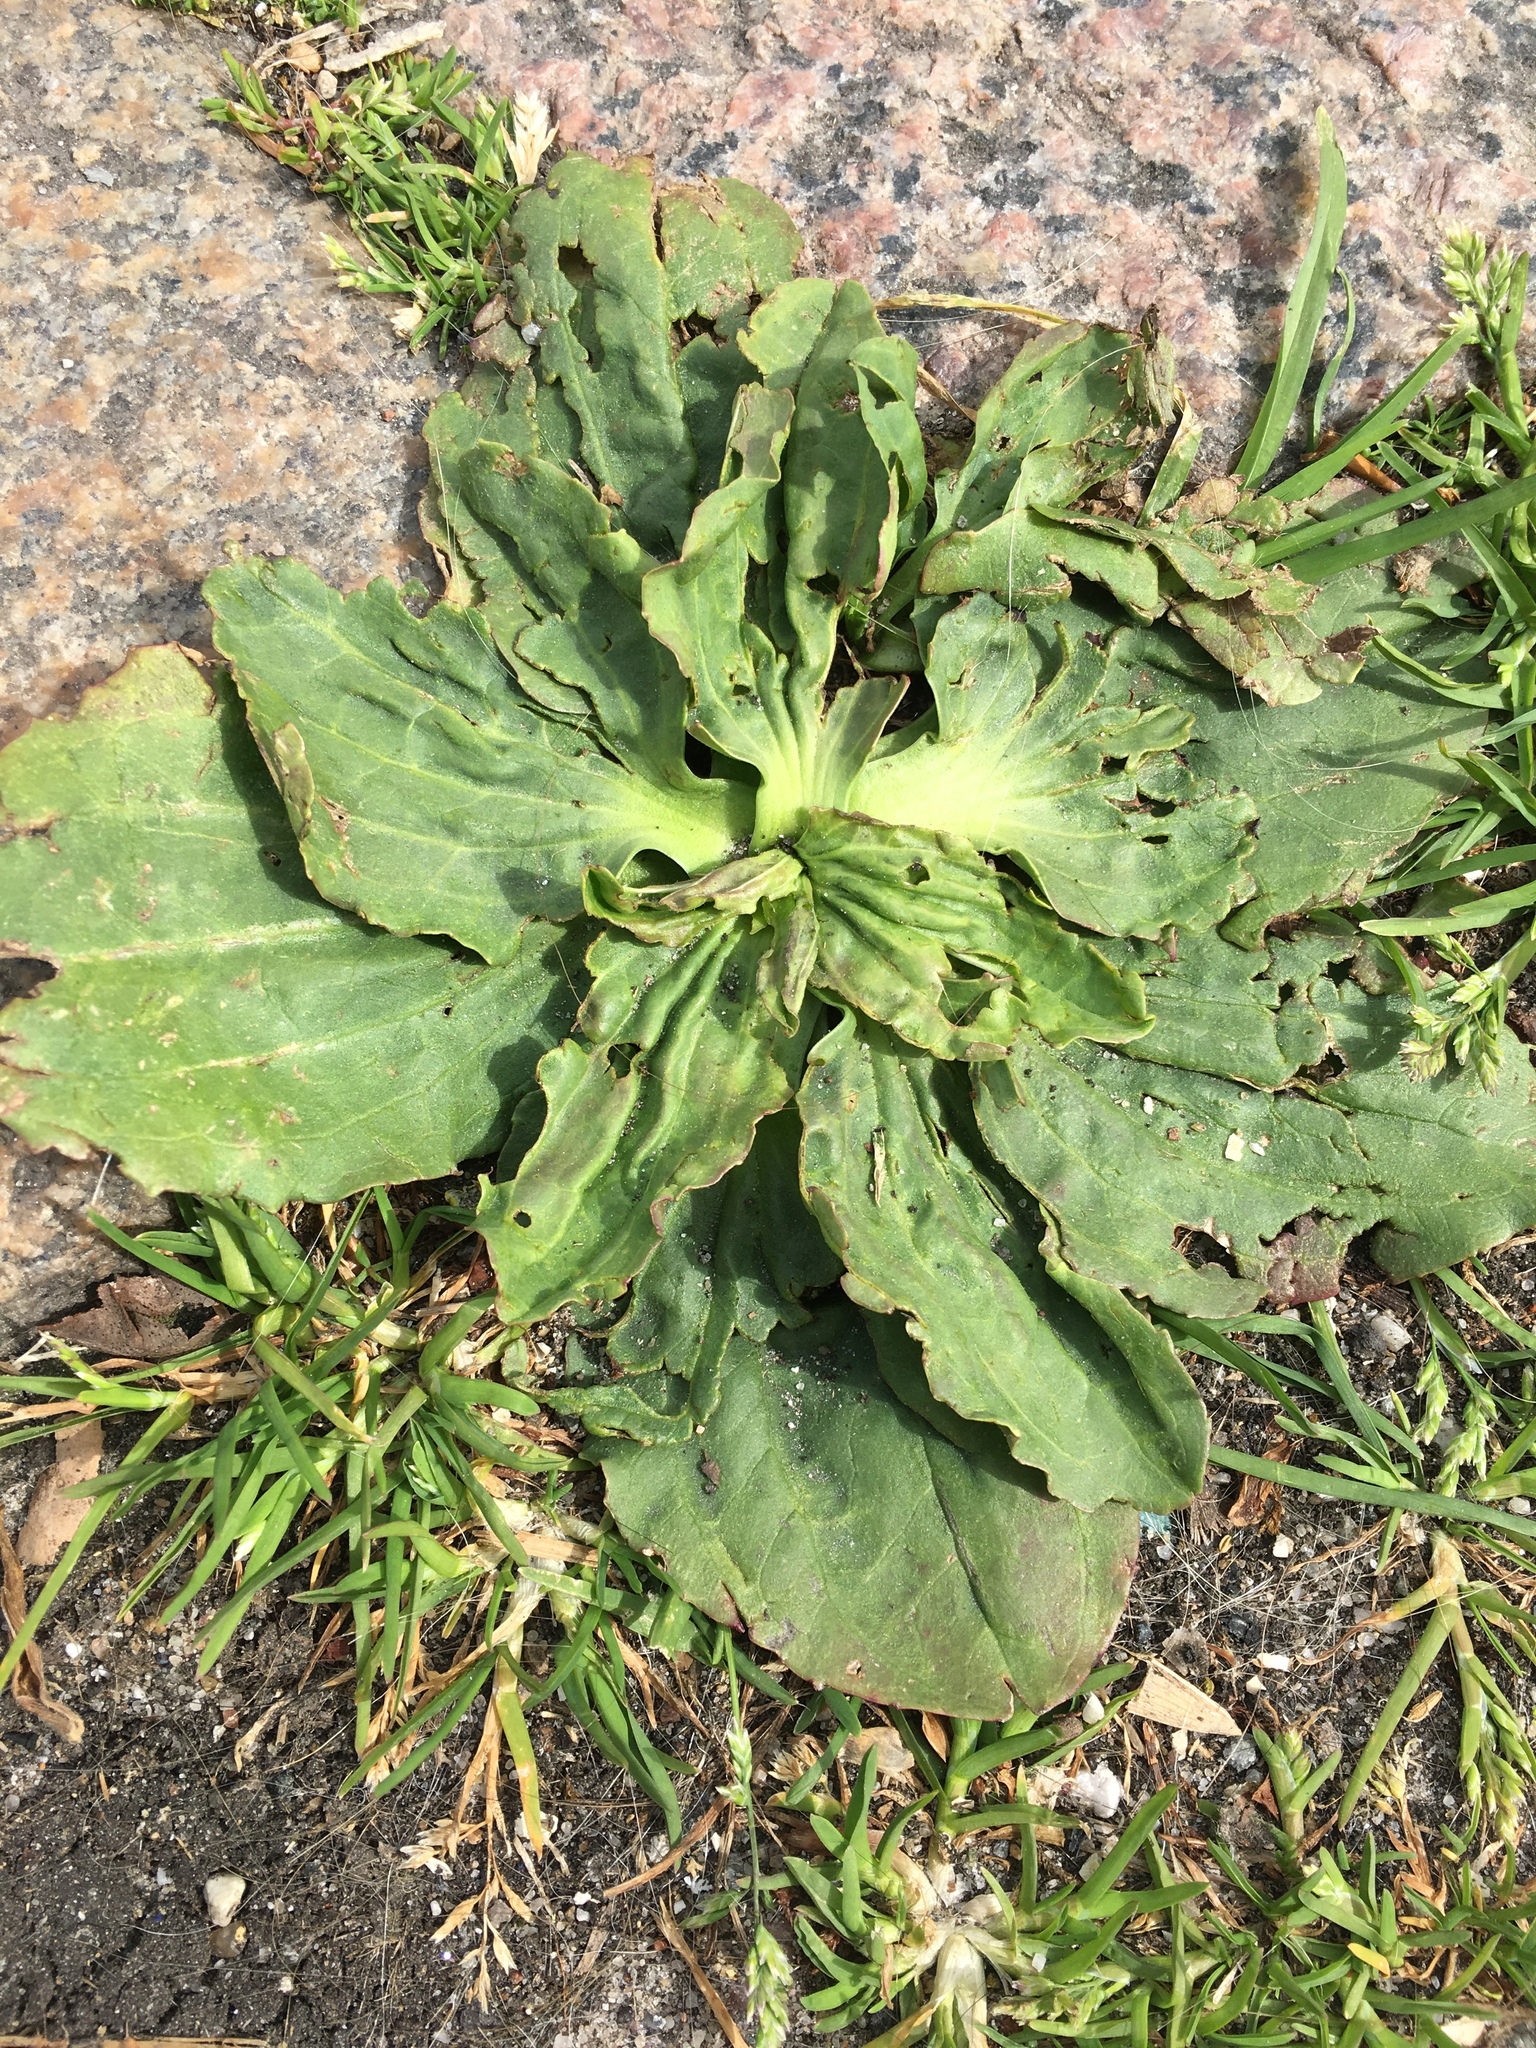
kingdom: Plantae
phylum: Tracheophyta
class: Magnoliopsida
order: Lamiales
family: Plantaginaceae
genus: Plantago
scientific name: Plantago major
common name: Common plantain
